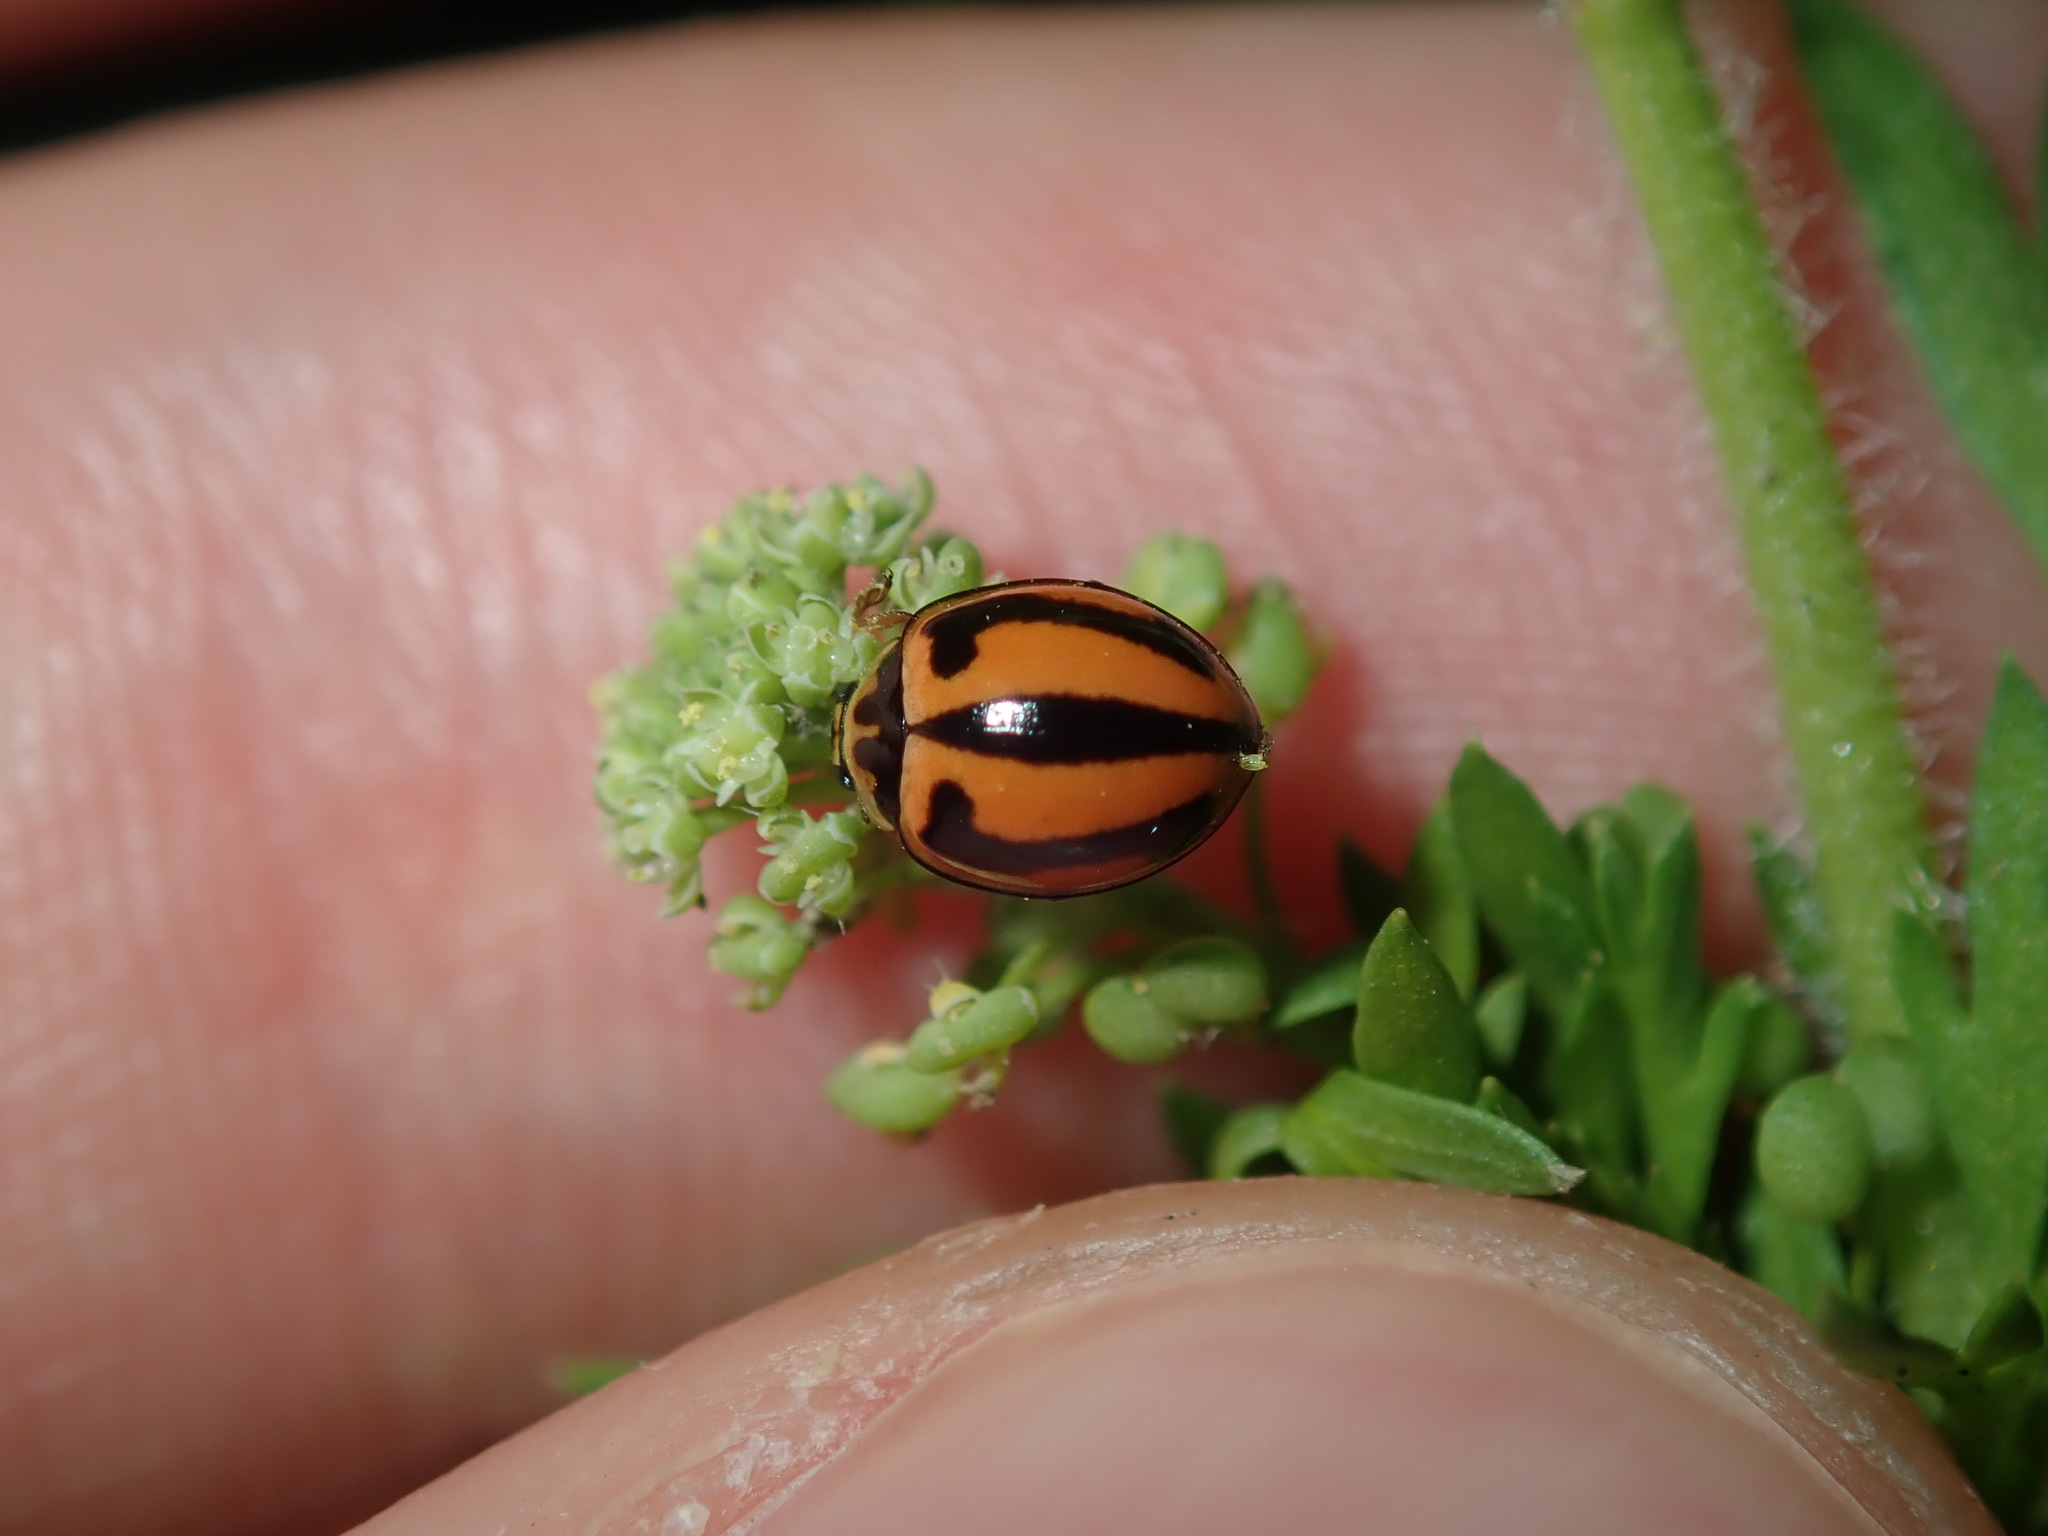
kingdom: Animalia
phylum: Arthropoda
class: Insecta
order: Coleoptera
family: Coccinellidae
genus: Micraspis
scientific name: Micraspis frenata
